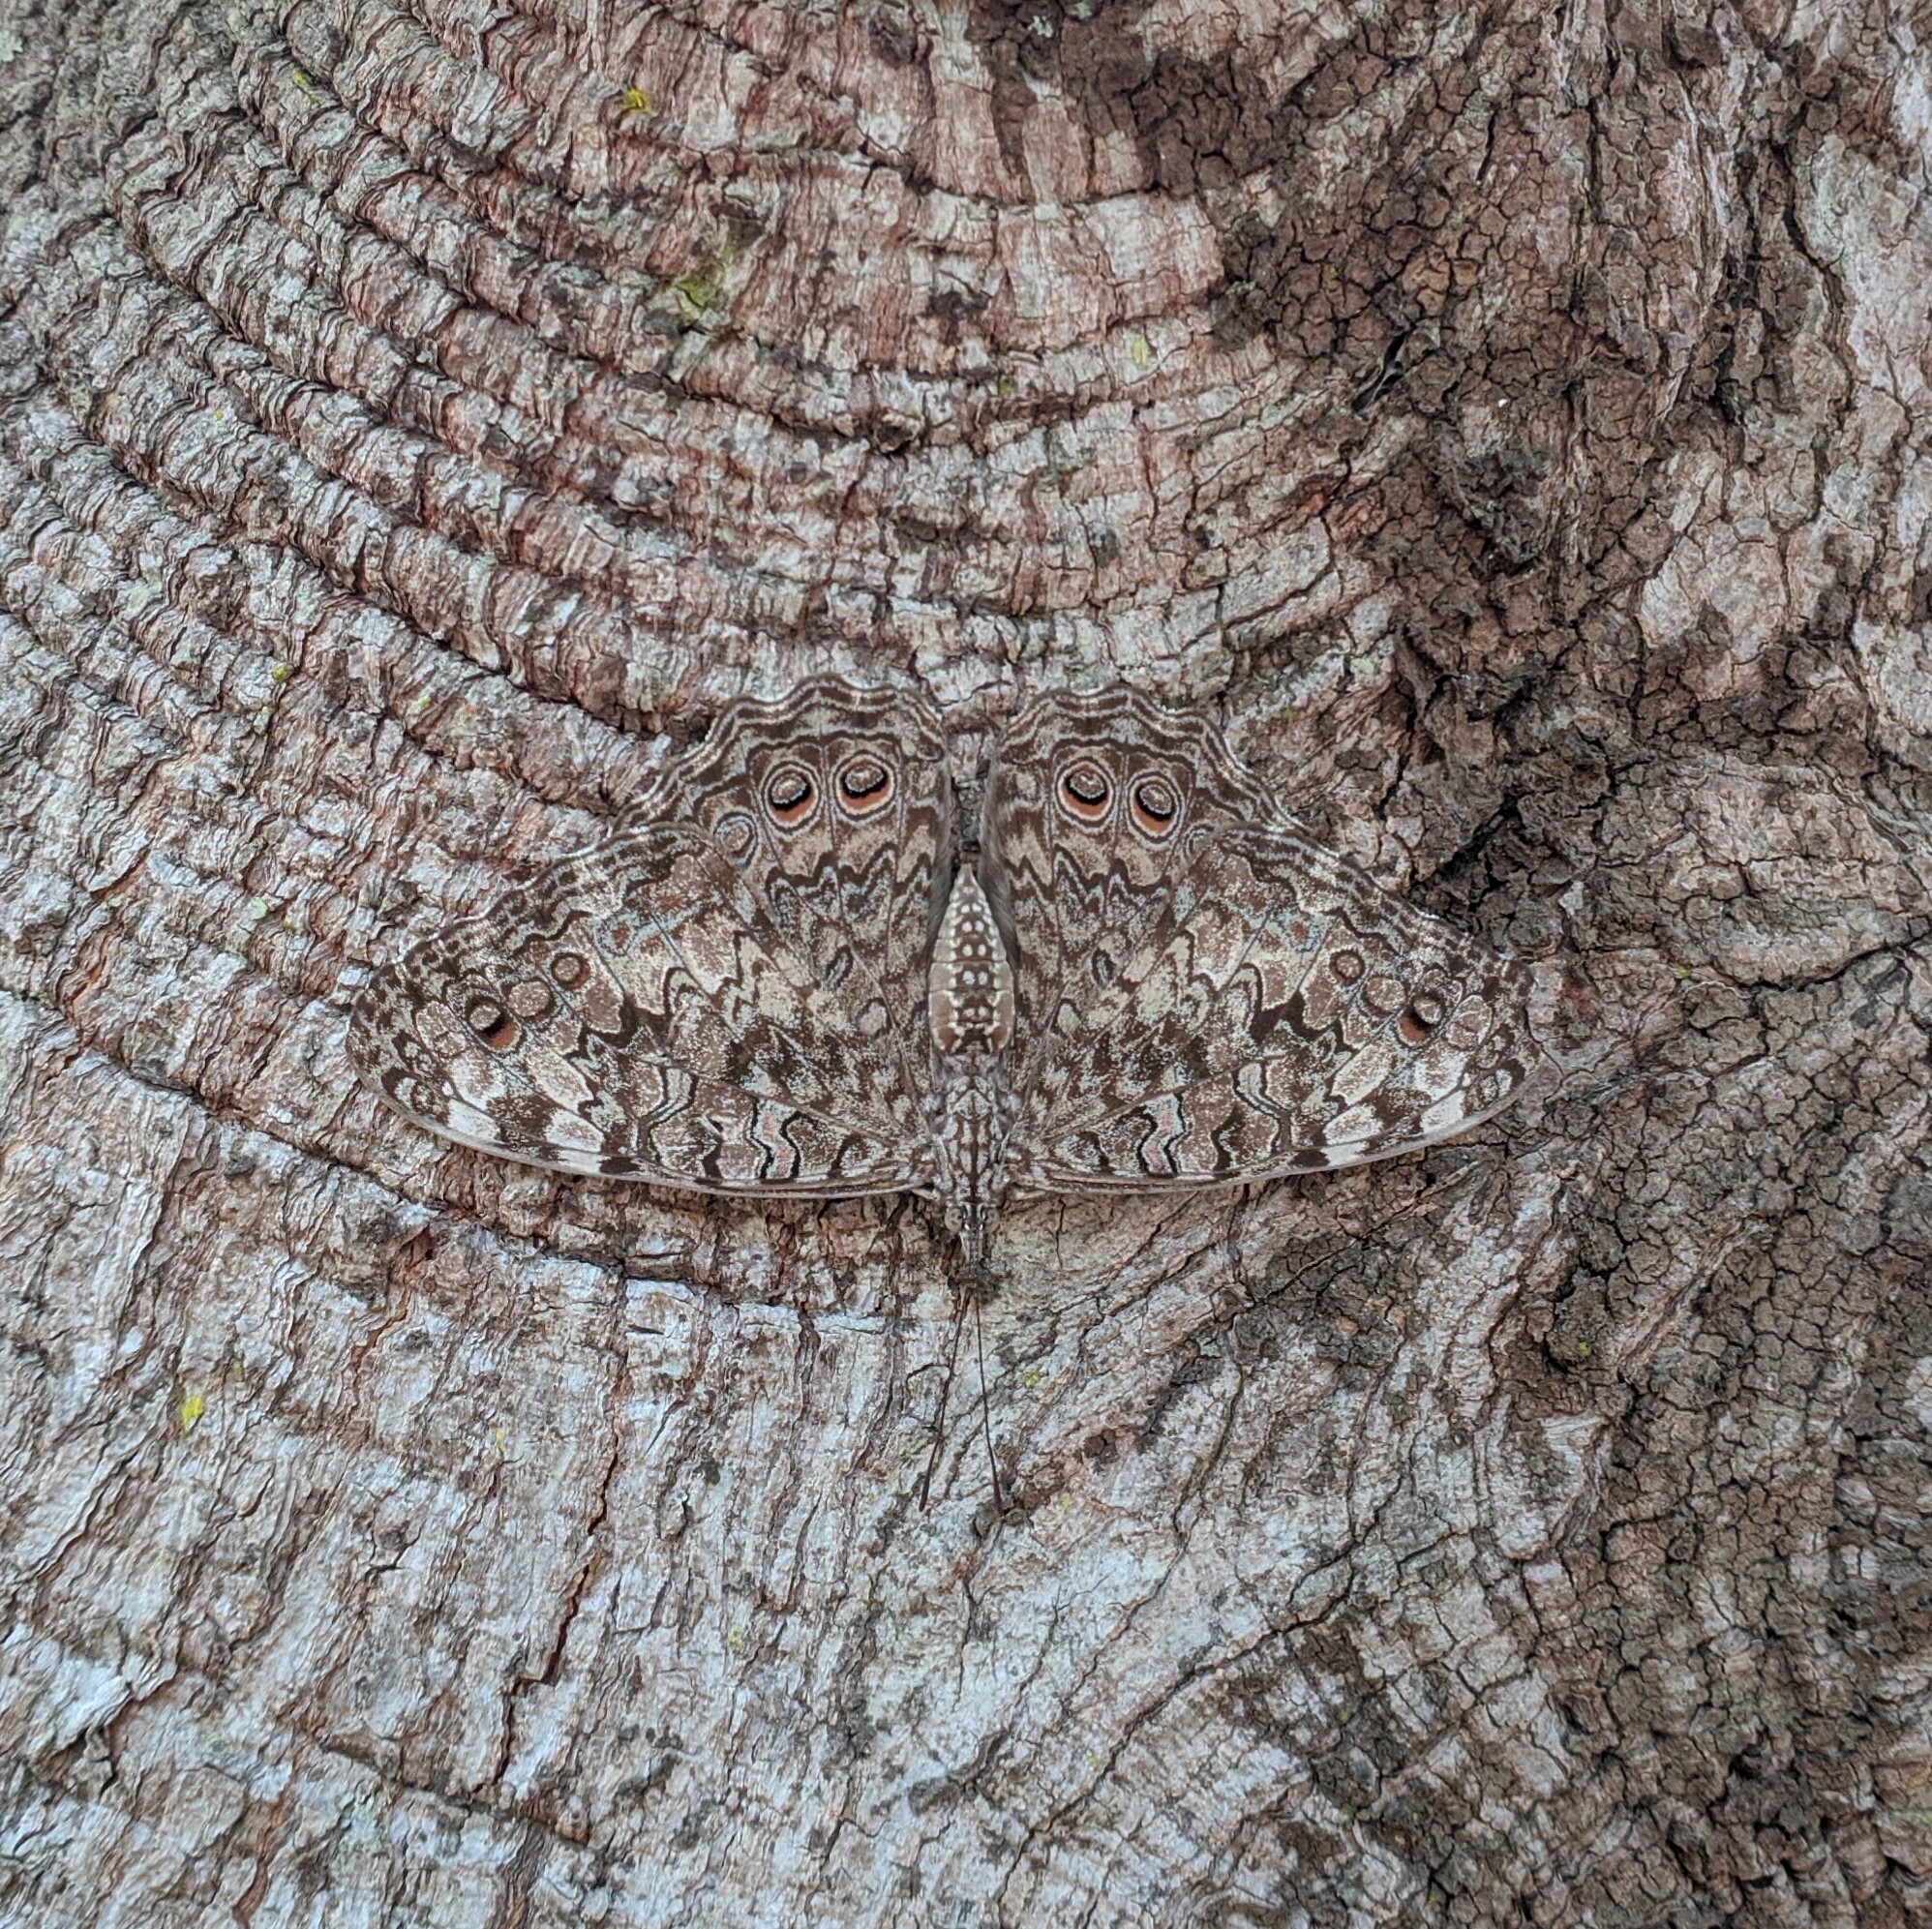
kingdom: Animalia
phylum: Arthropoda
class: Insecta
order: Lepidoptera
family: Nymphalidae
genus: Hamadryas
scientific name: Hamadryas februa
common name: Gray cracker
